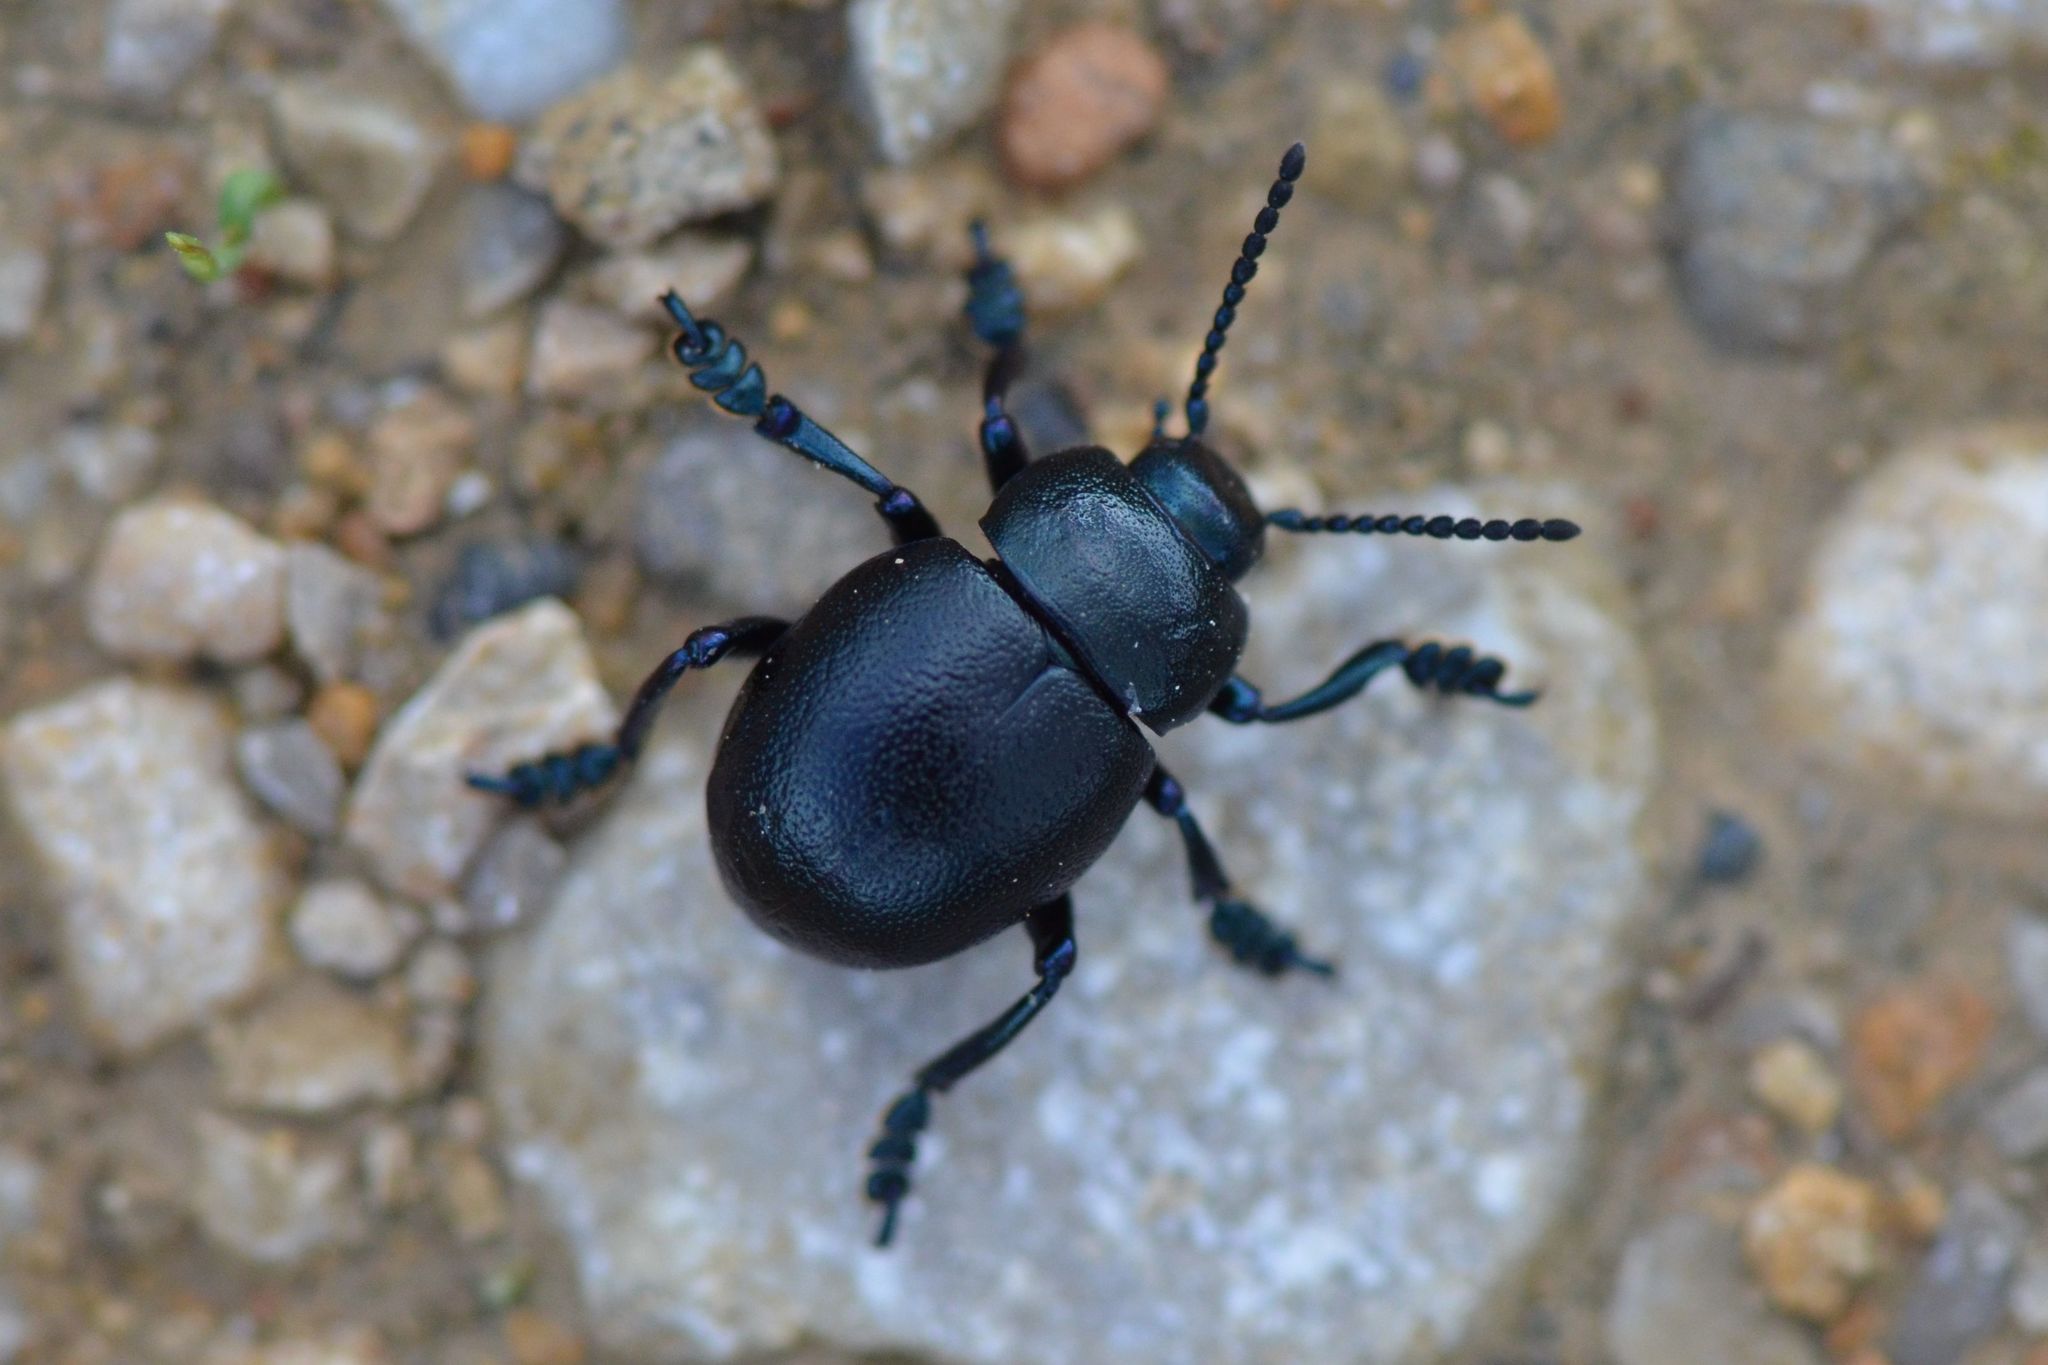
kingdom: Animalia
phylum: Arthropoda
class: Insecta
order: Coleoptera
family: Chrysomelidae
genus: Timarcha
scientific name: Timarcha goettingensis
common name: Small bloody-nosed beetle
